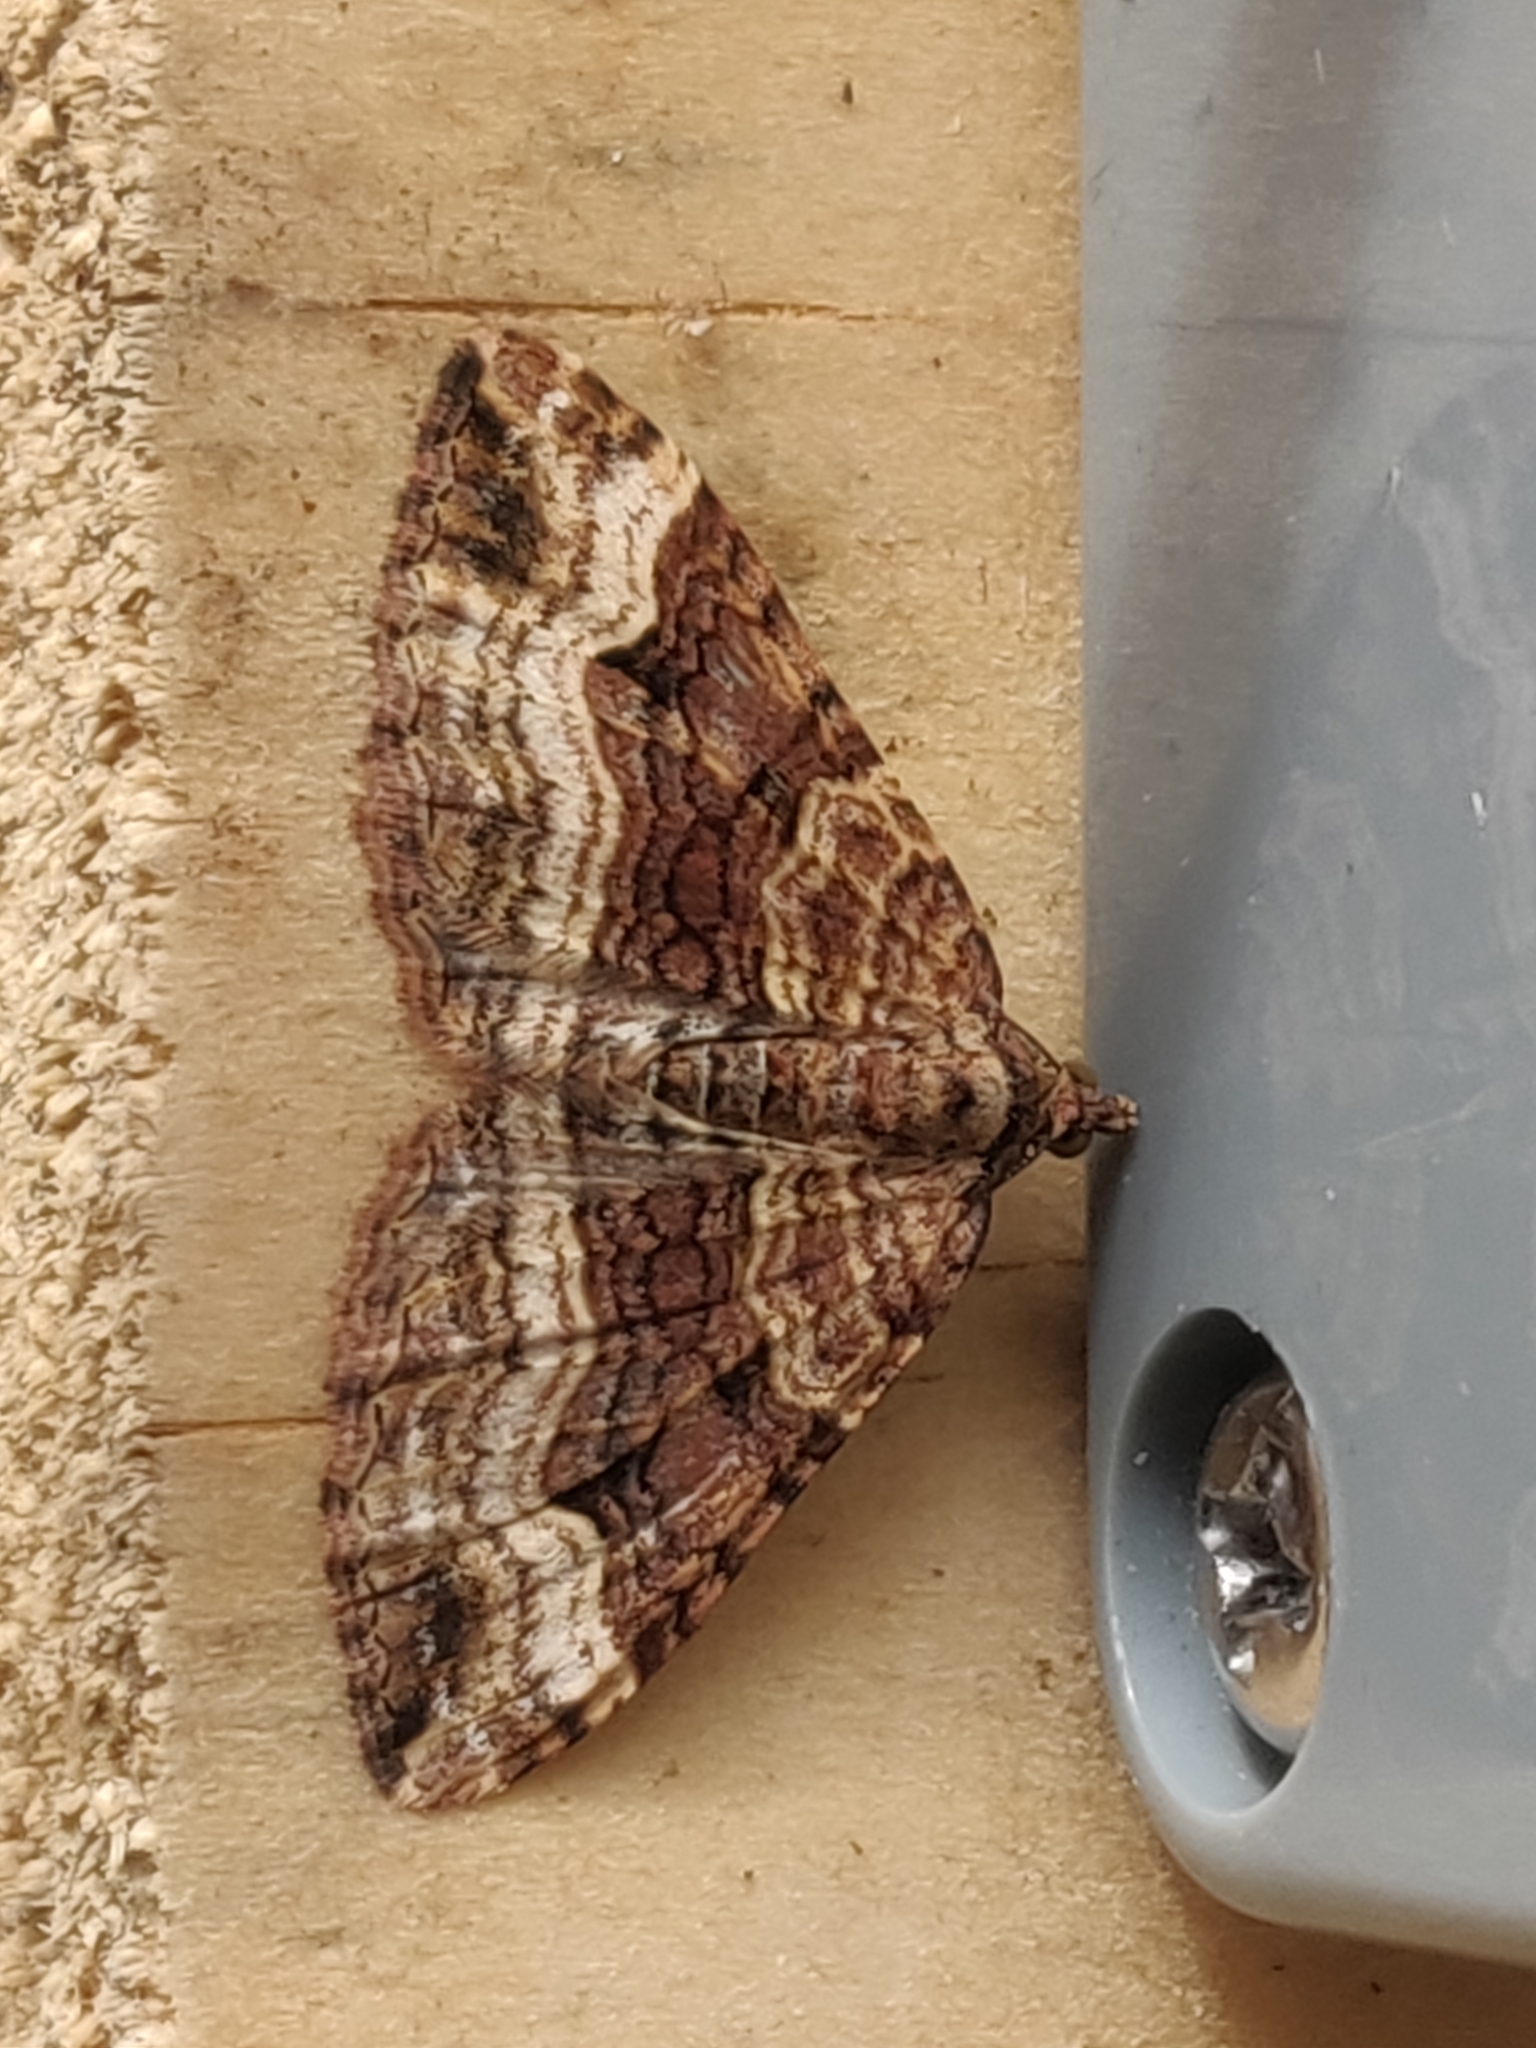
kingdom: Animalia
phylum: Arthropoda
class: Insecta
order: Lepidoptera
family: Geometridae
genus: Epyaxa
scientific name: Epyaxa subidaria
